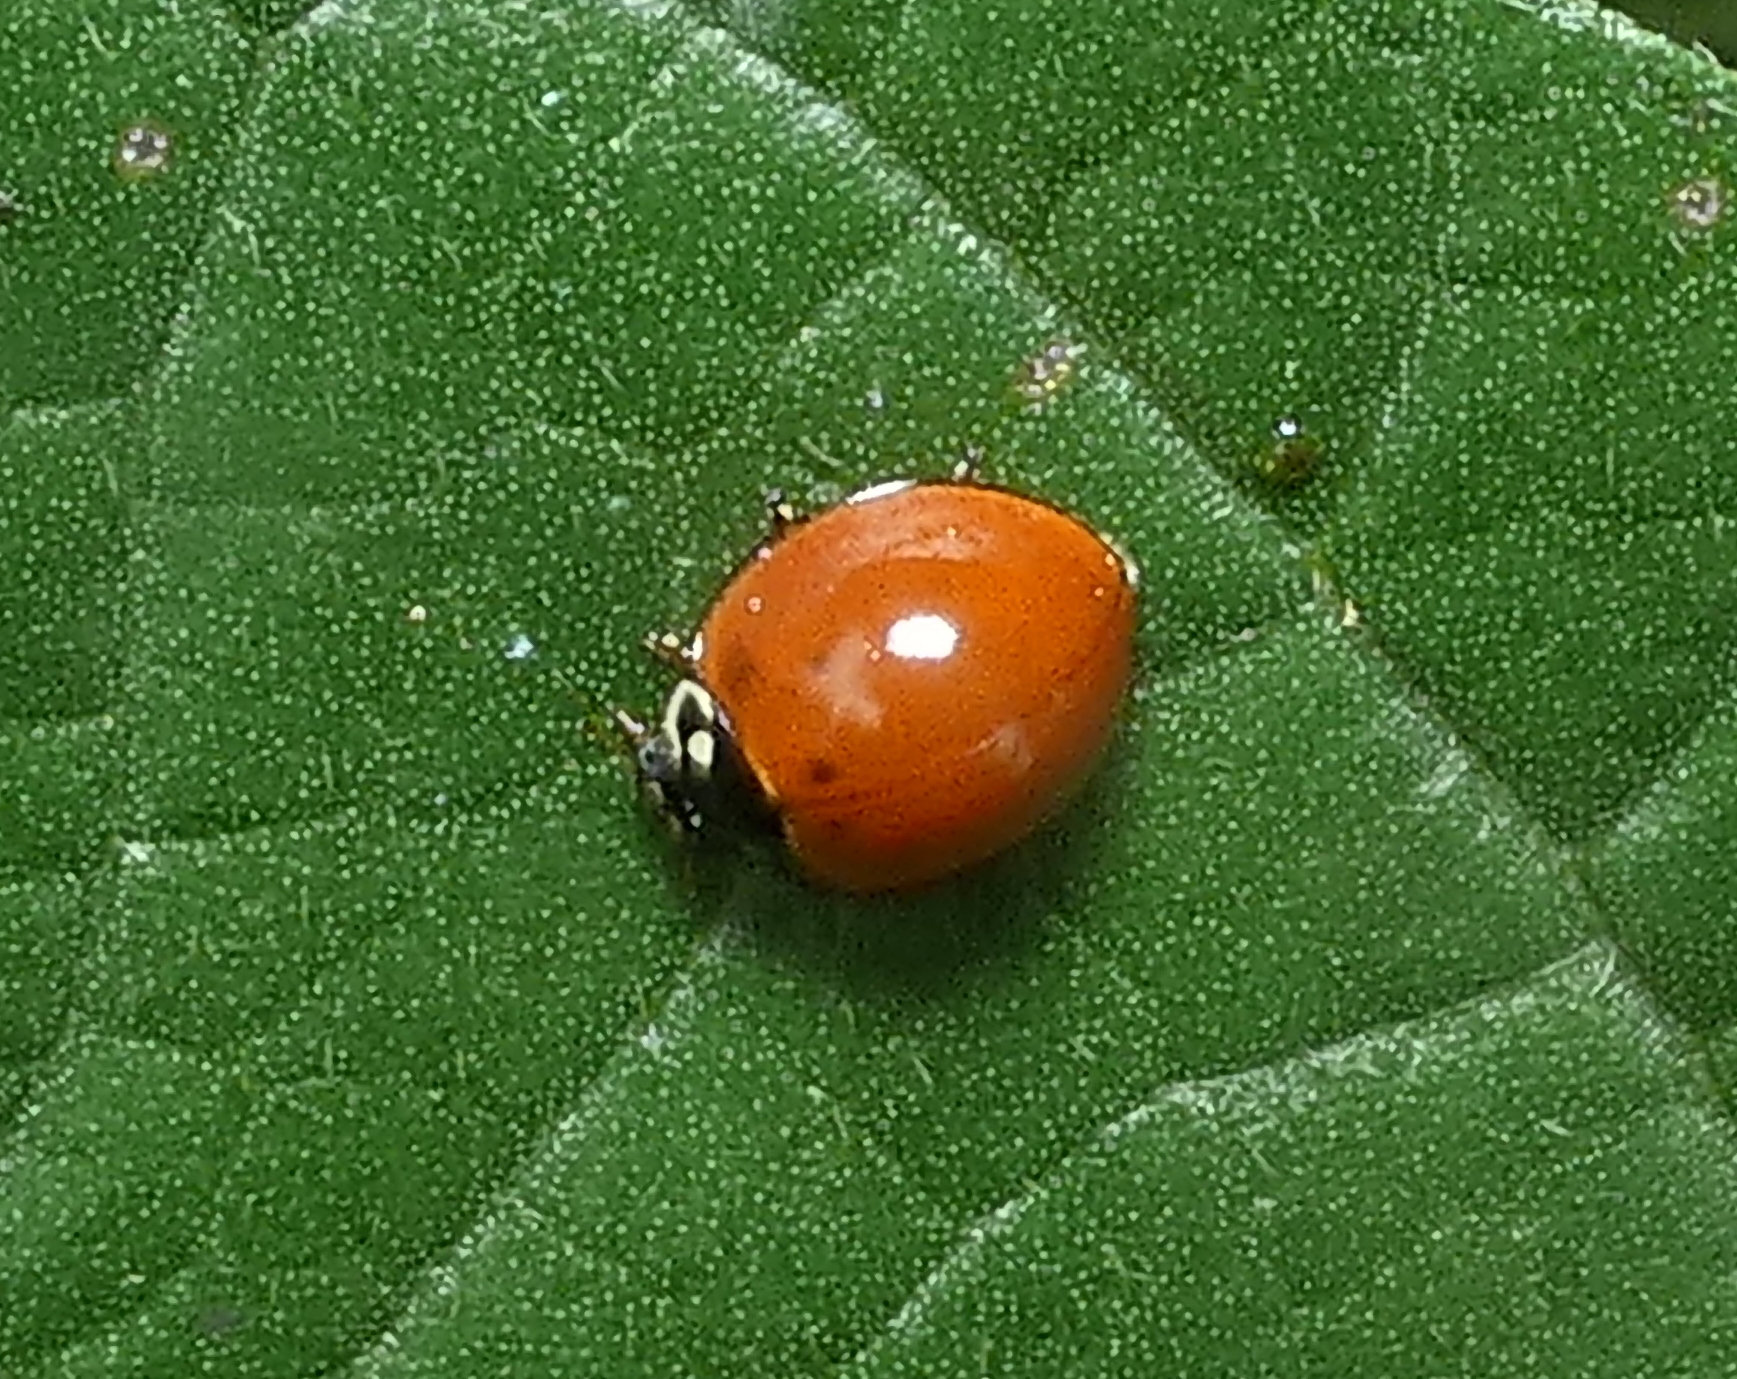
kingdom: Animalia
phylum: Arthropoda
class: Insecta
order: Coleoptera
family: Coccinellidae
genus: Cycloneda
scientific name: Cycloneda sanguinea
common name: Ladybird beetle
